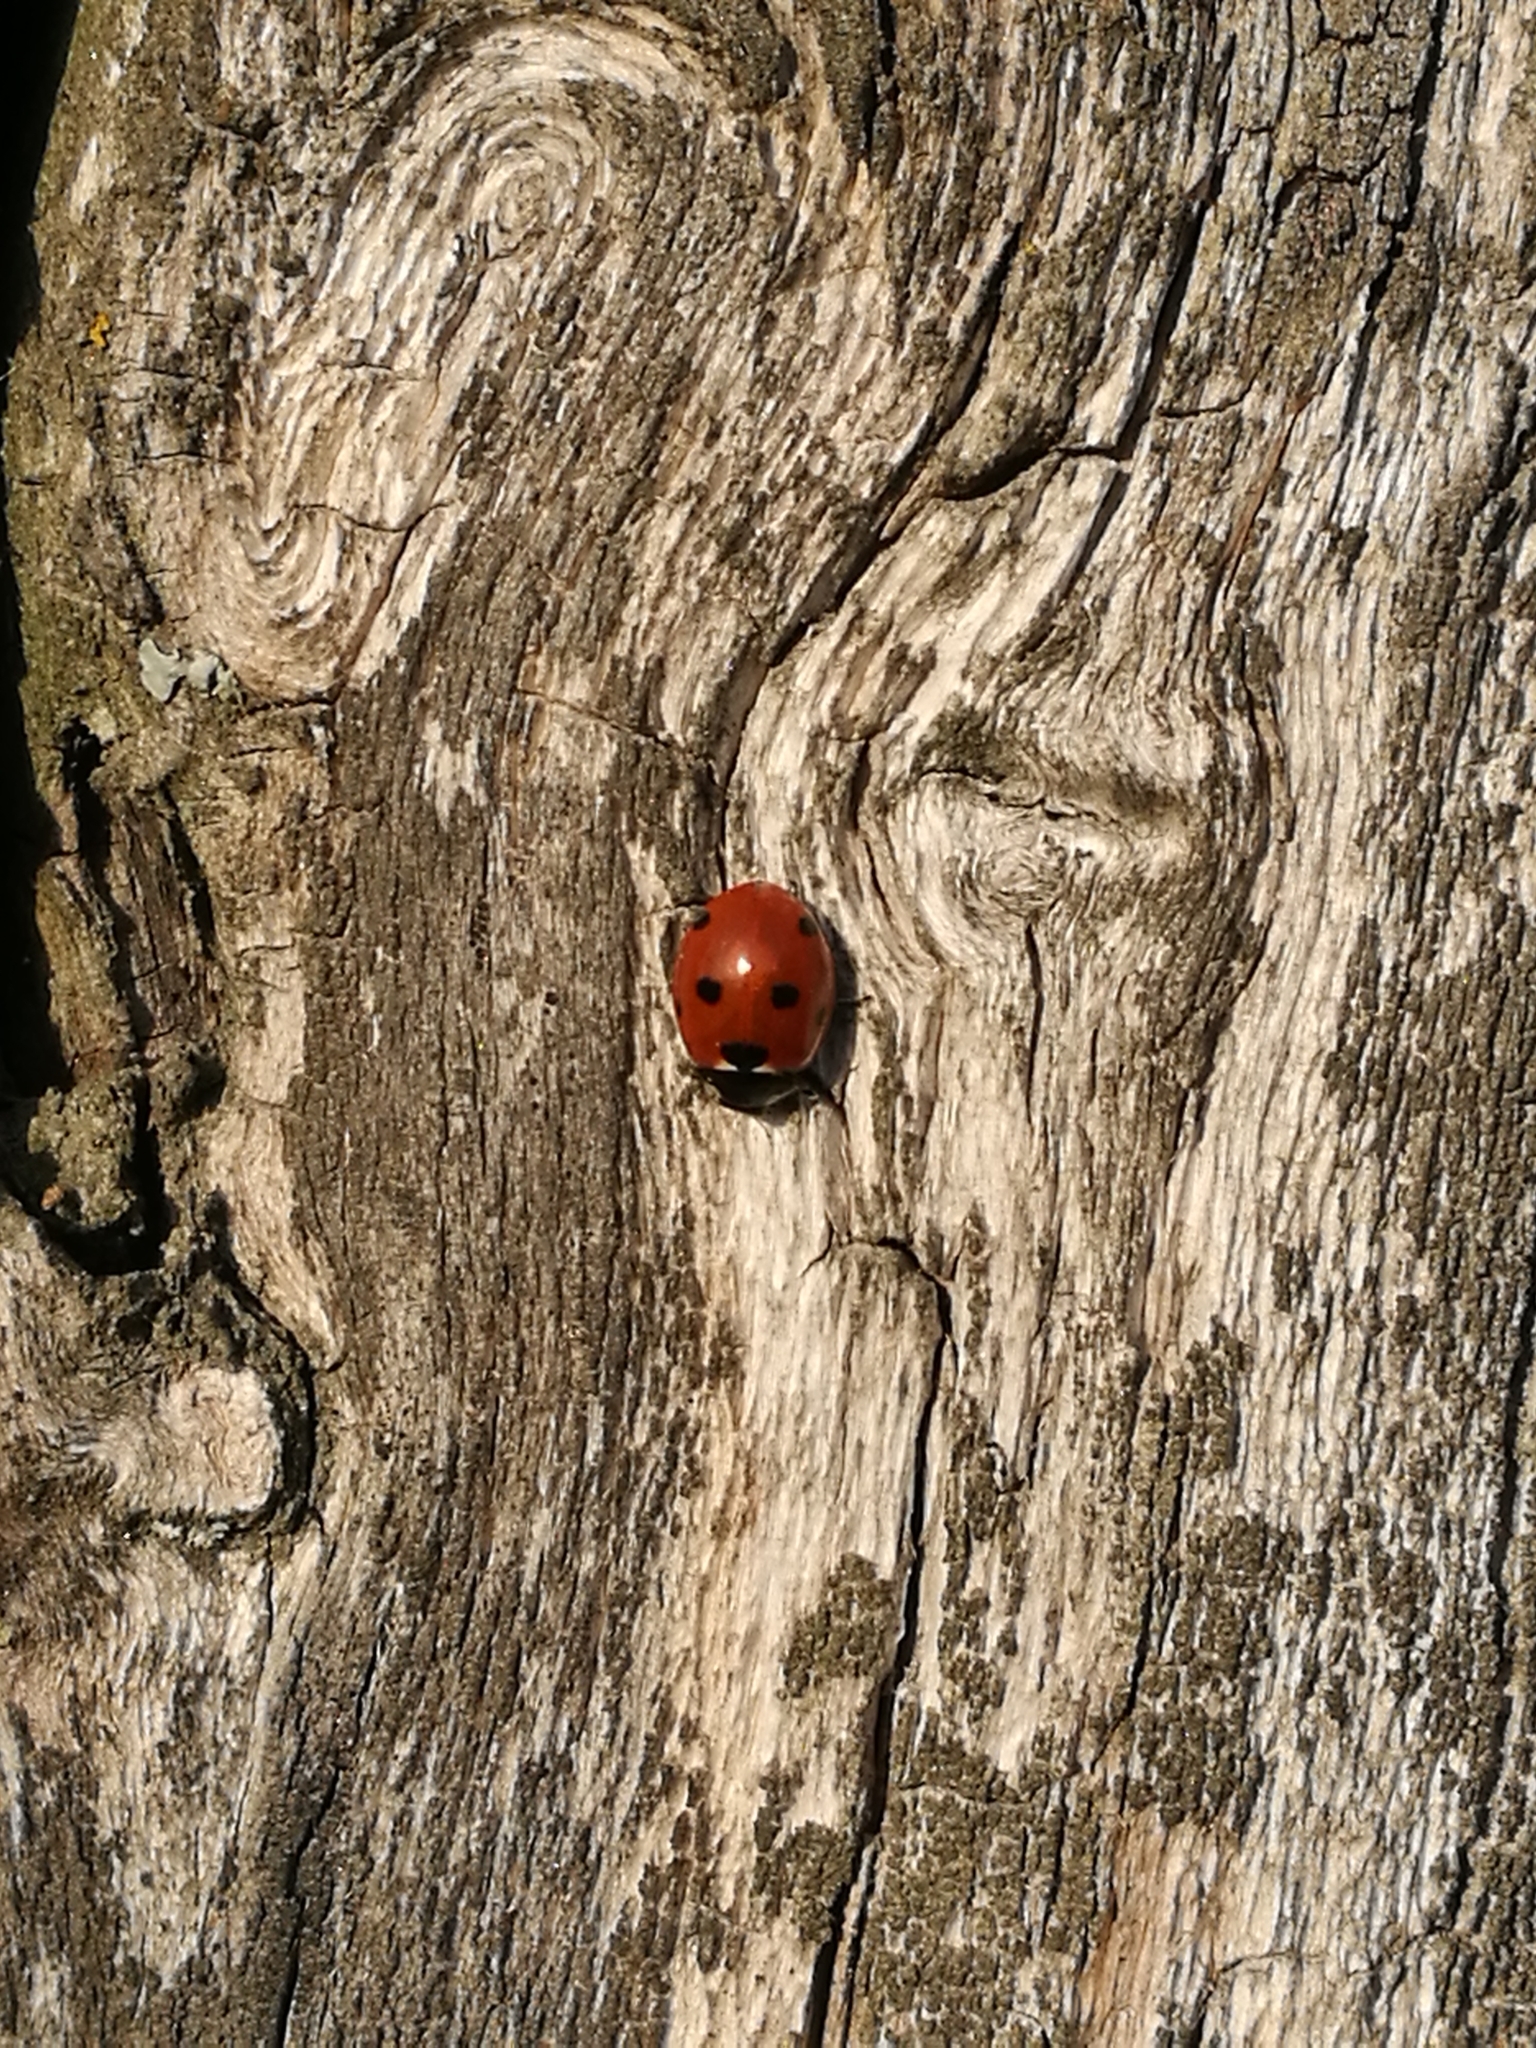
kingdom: Animalia
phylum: Arthropoda
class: Insecta
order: Coleoptera
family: Coccinellidae
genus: Coccinella
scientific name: Coccinella septempunctata
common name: Sevenspotted lady beetle
